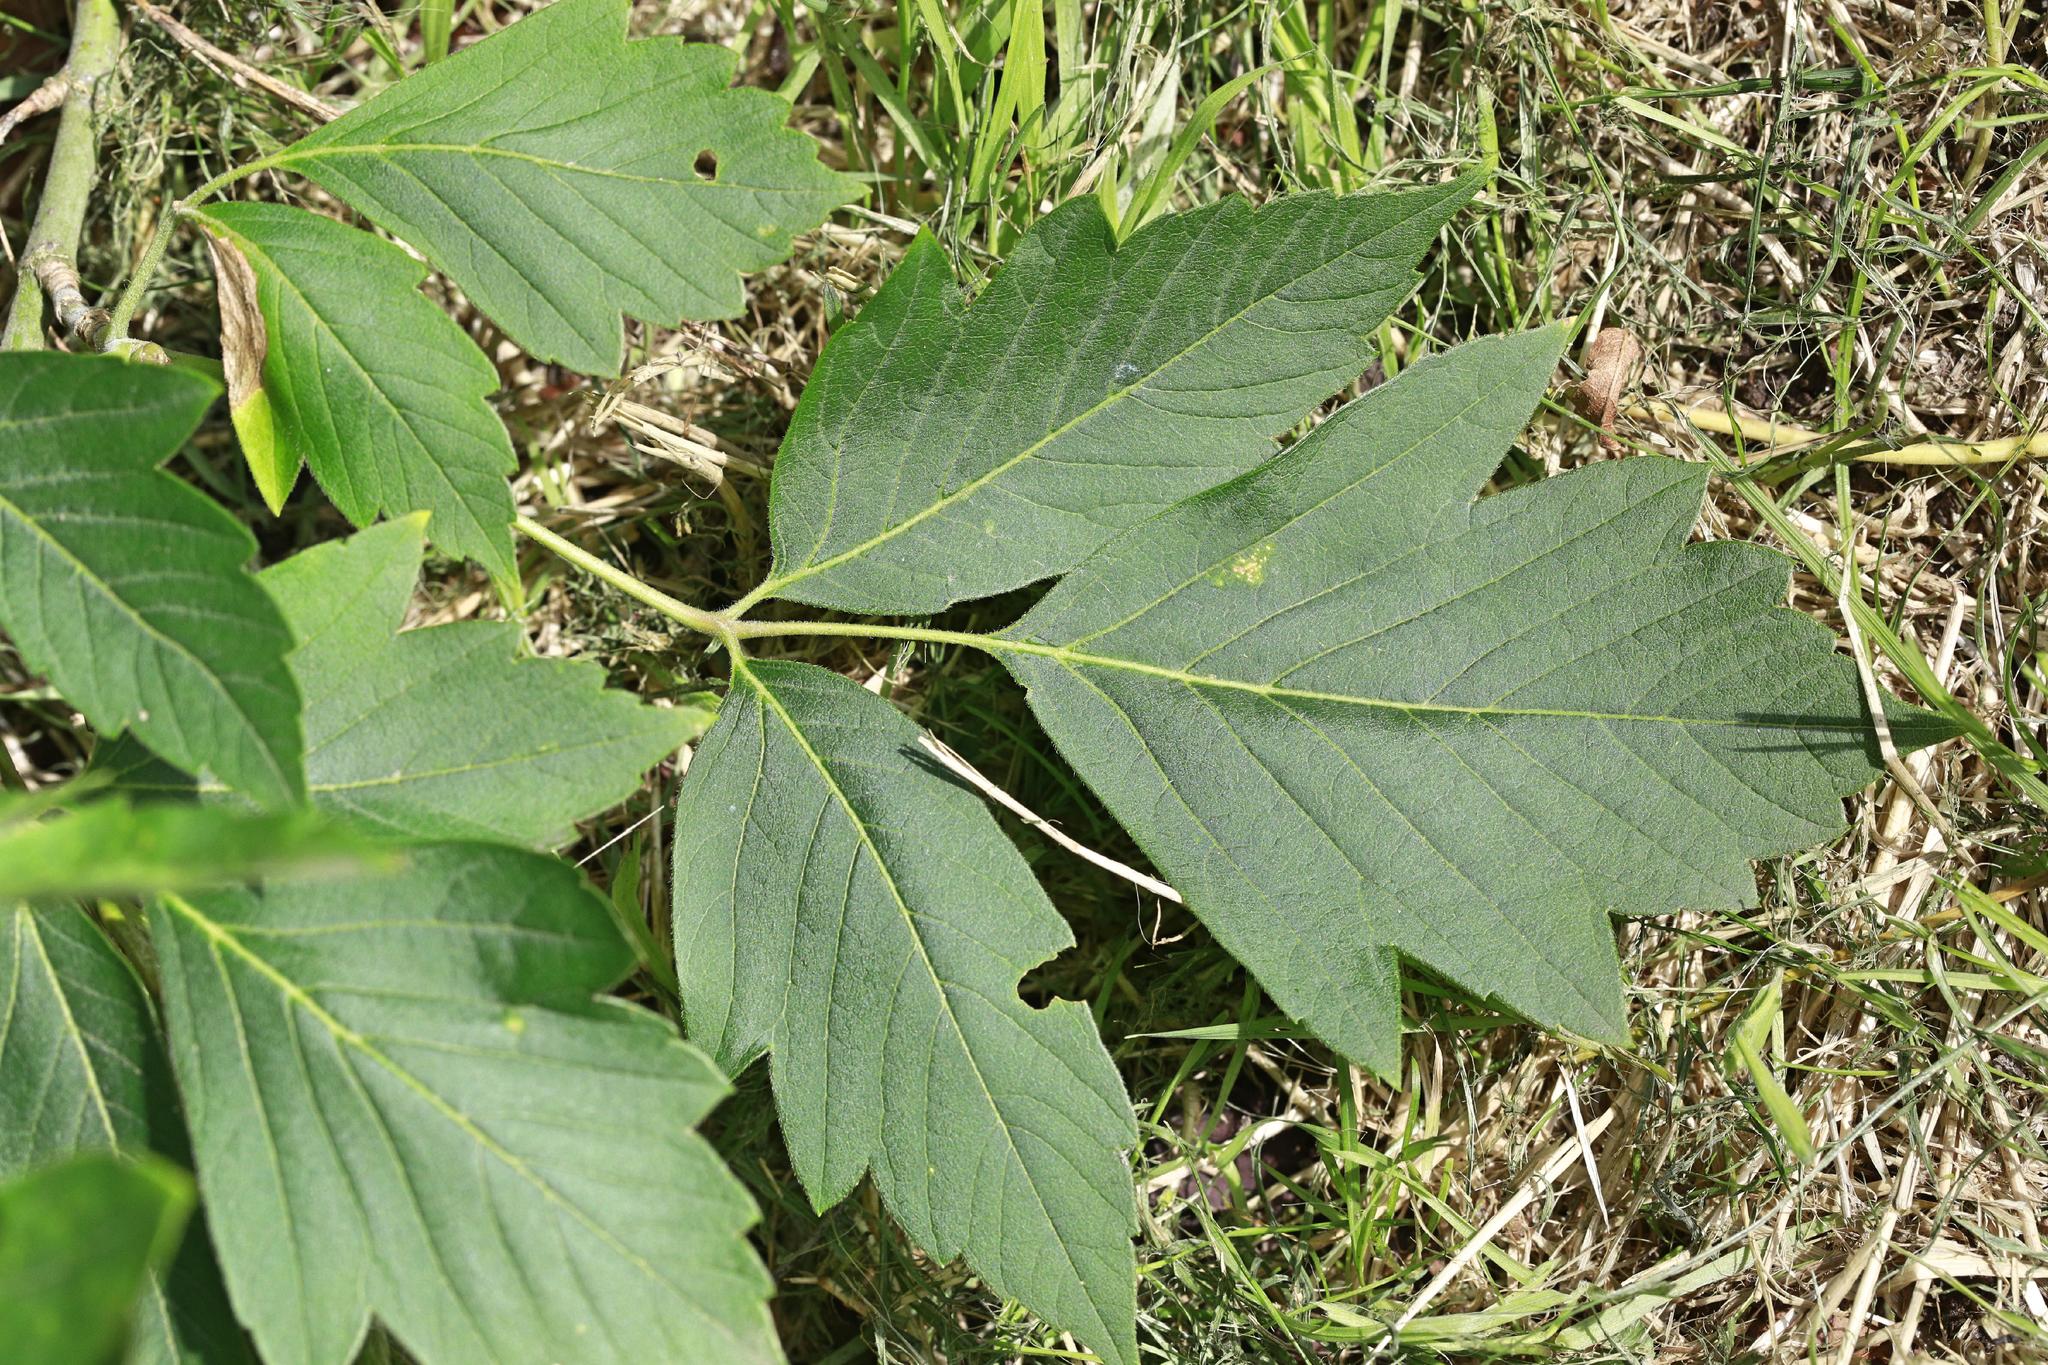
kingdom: Plantae
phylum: Tracheophyta
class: Magnoliopsida
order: Sapindales
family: Sapindaceae
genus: Acer
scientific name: Acer negundo
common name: Ashleaf maple
